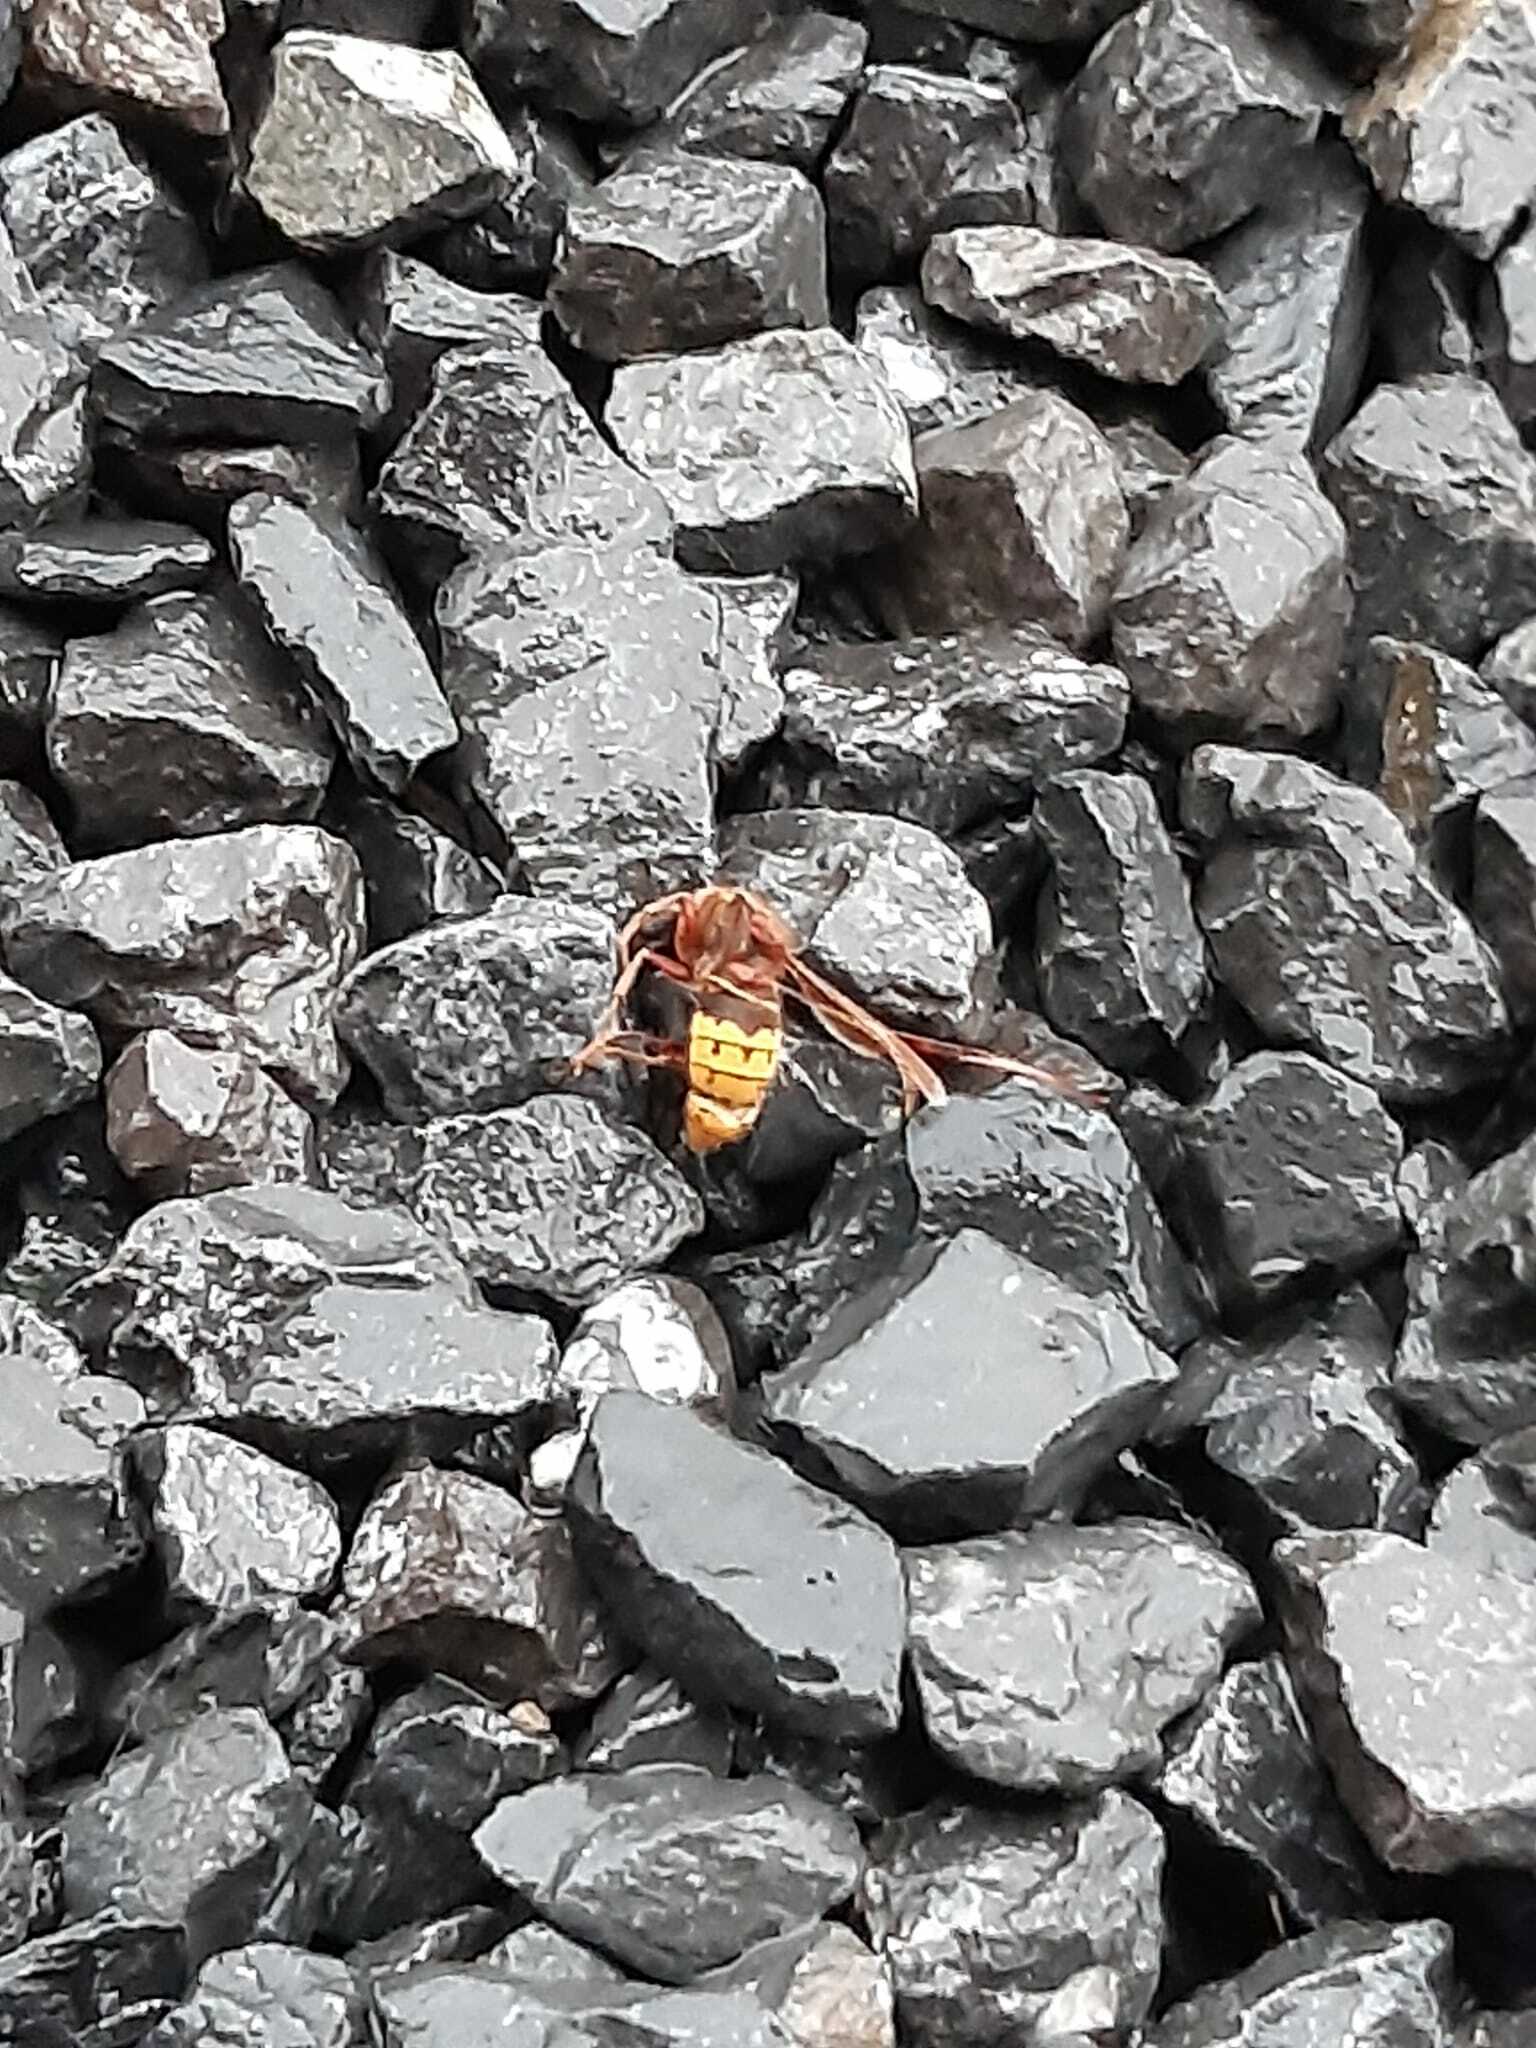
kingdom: Animalia
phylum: Arthropoda
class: Insecta
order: Hymenoptera
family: Vespidae
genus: Vespa
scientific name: Vespa crabro
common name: Hornet
